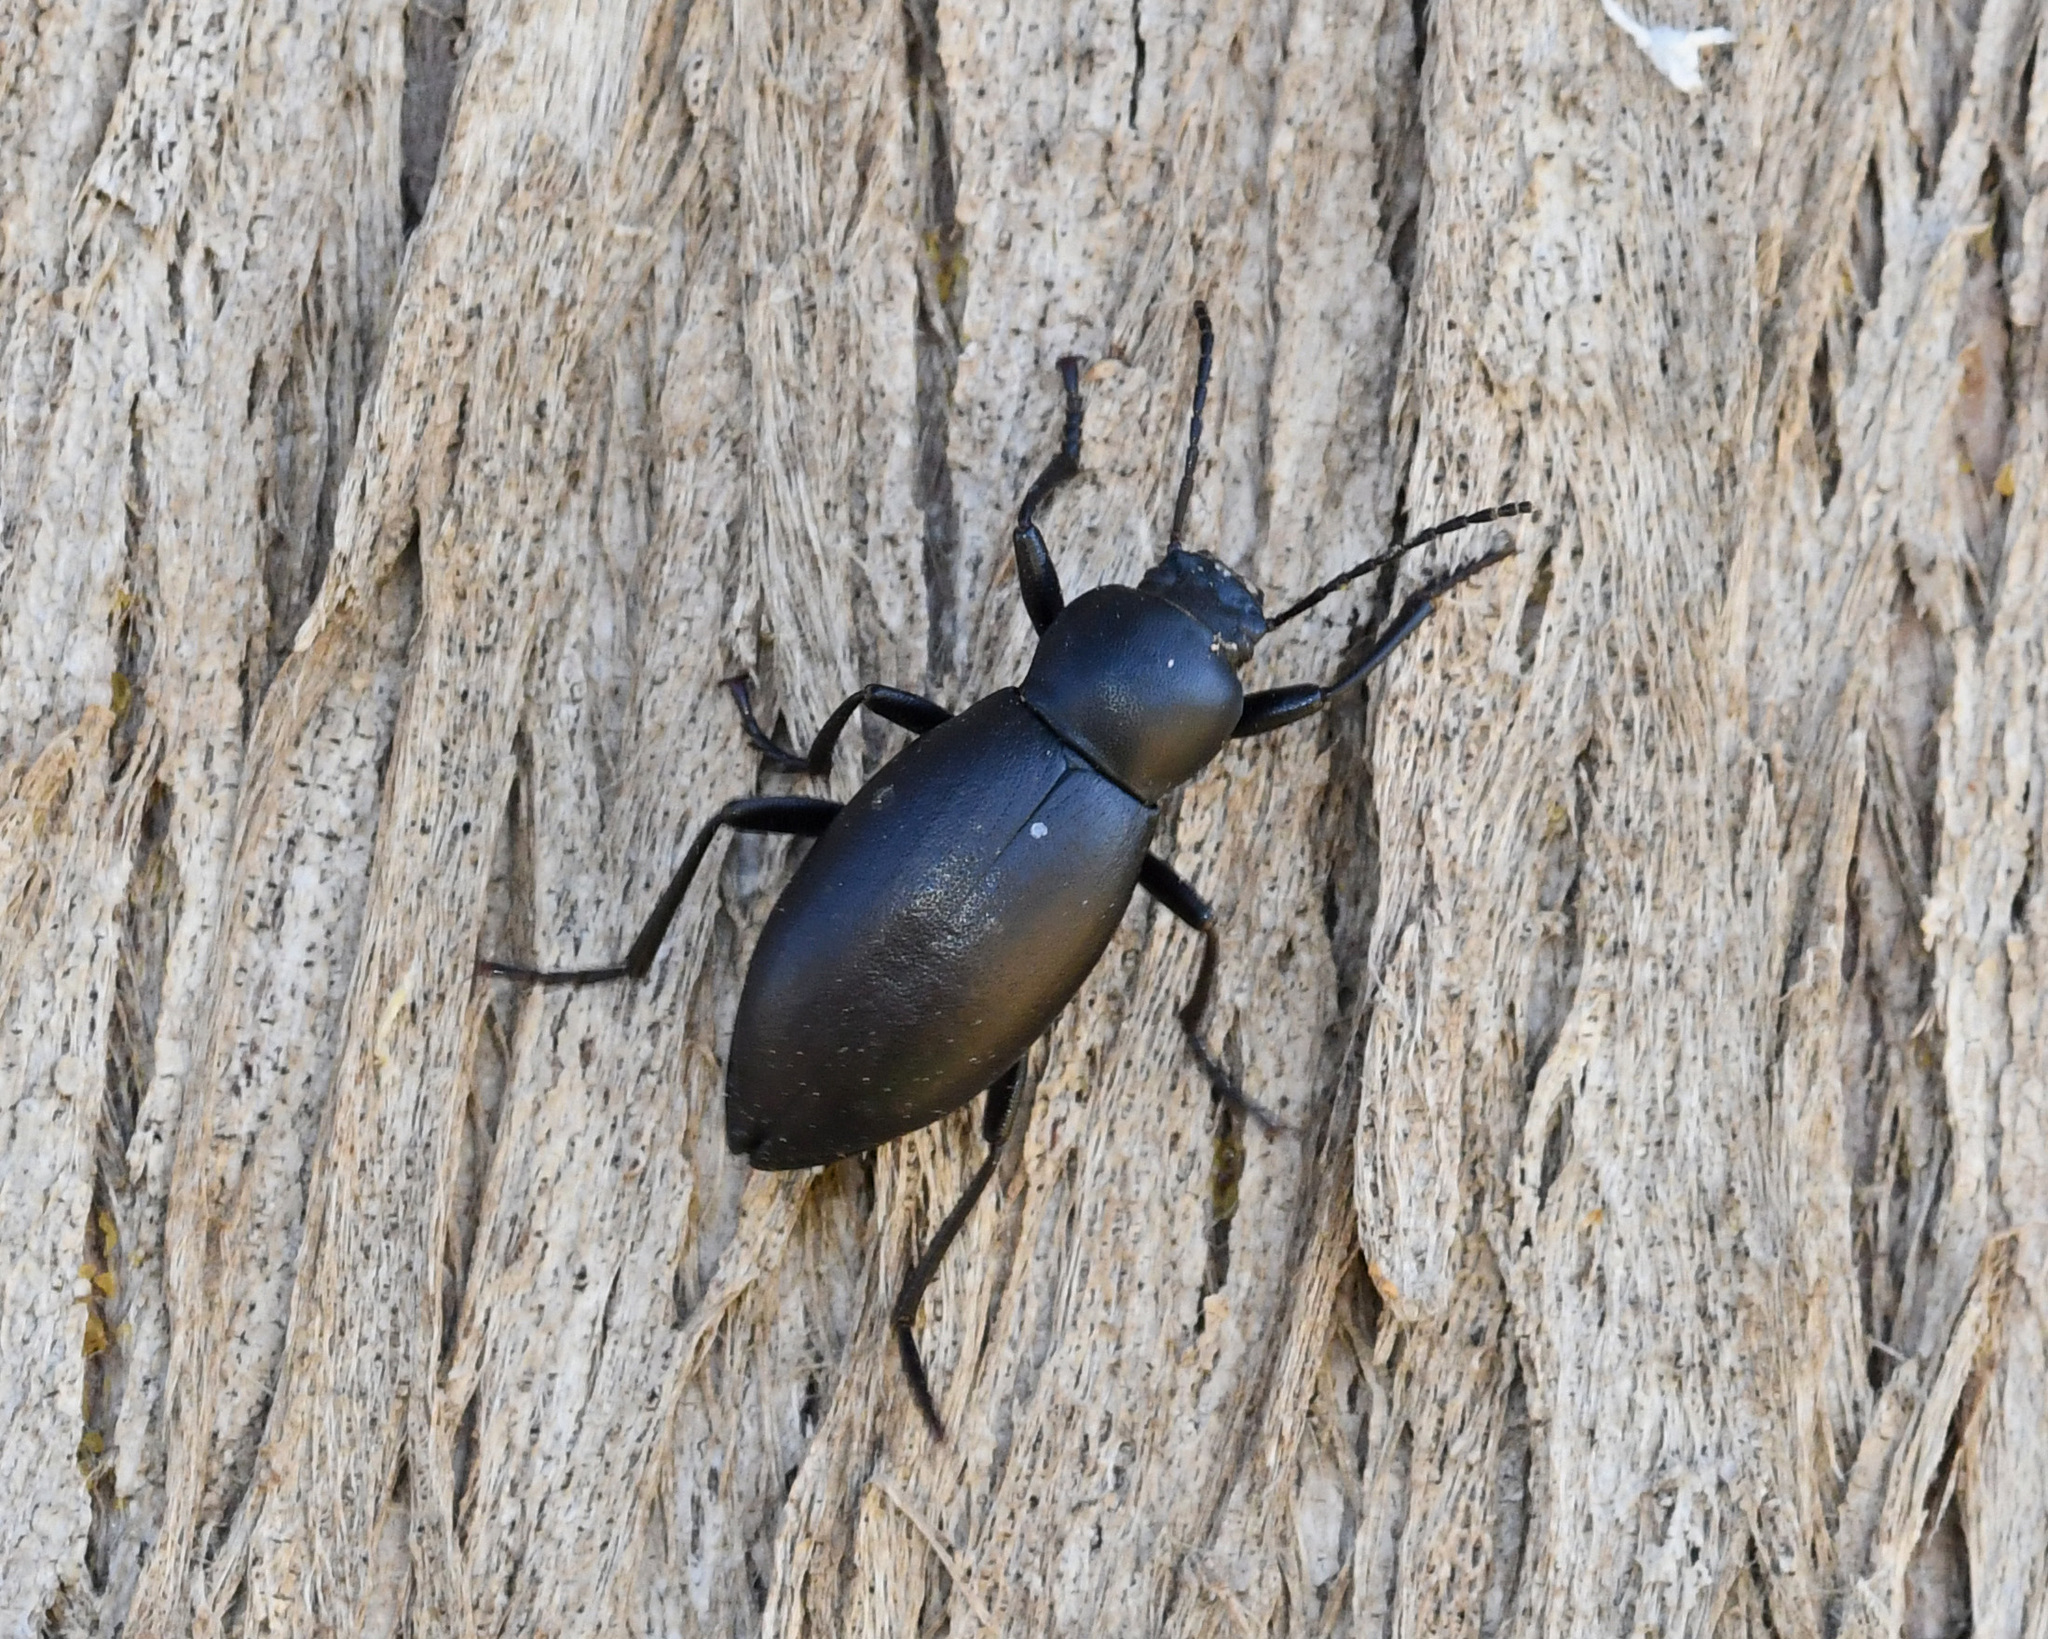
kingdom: Animalia
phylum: Arthropoda
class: Insecta
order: Coleoptera
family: Tenebrionidae
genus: Entomogonus
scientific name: Entomogonus obtusus
